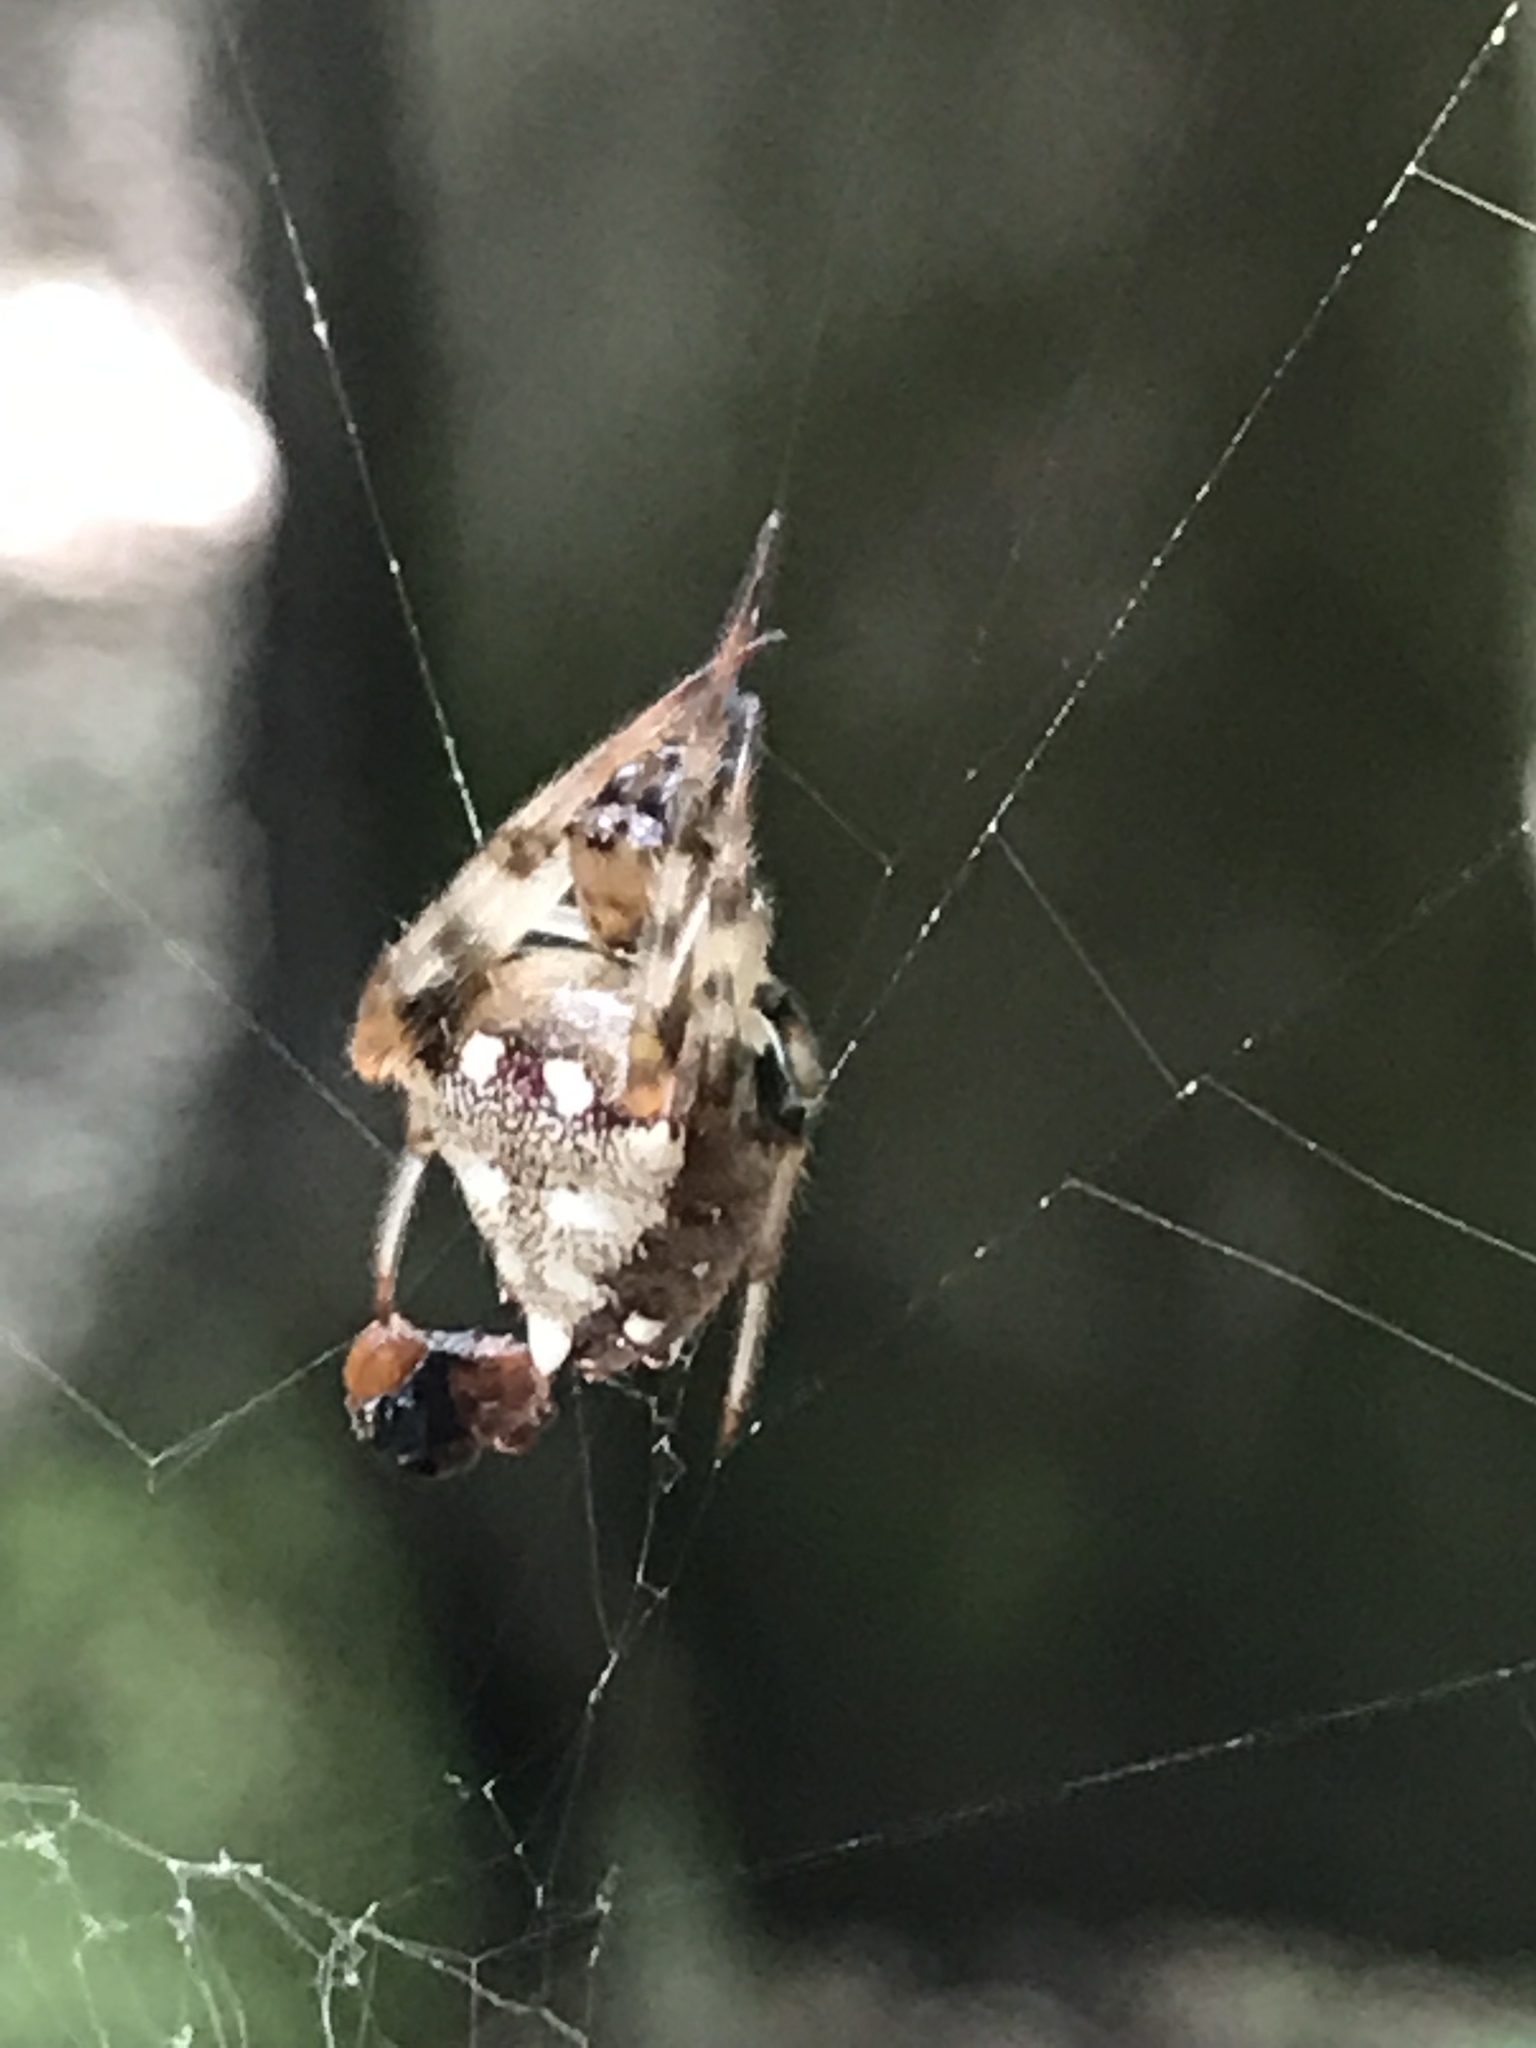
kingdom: Animalia
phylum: Arthropoda
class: Arachnida
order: Araneae
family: Araneidae
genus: Verrucosa
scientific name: Verrucosa arenata
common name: Orb weavers
